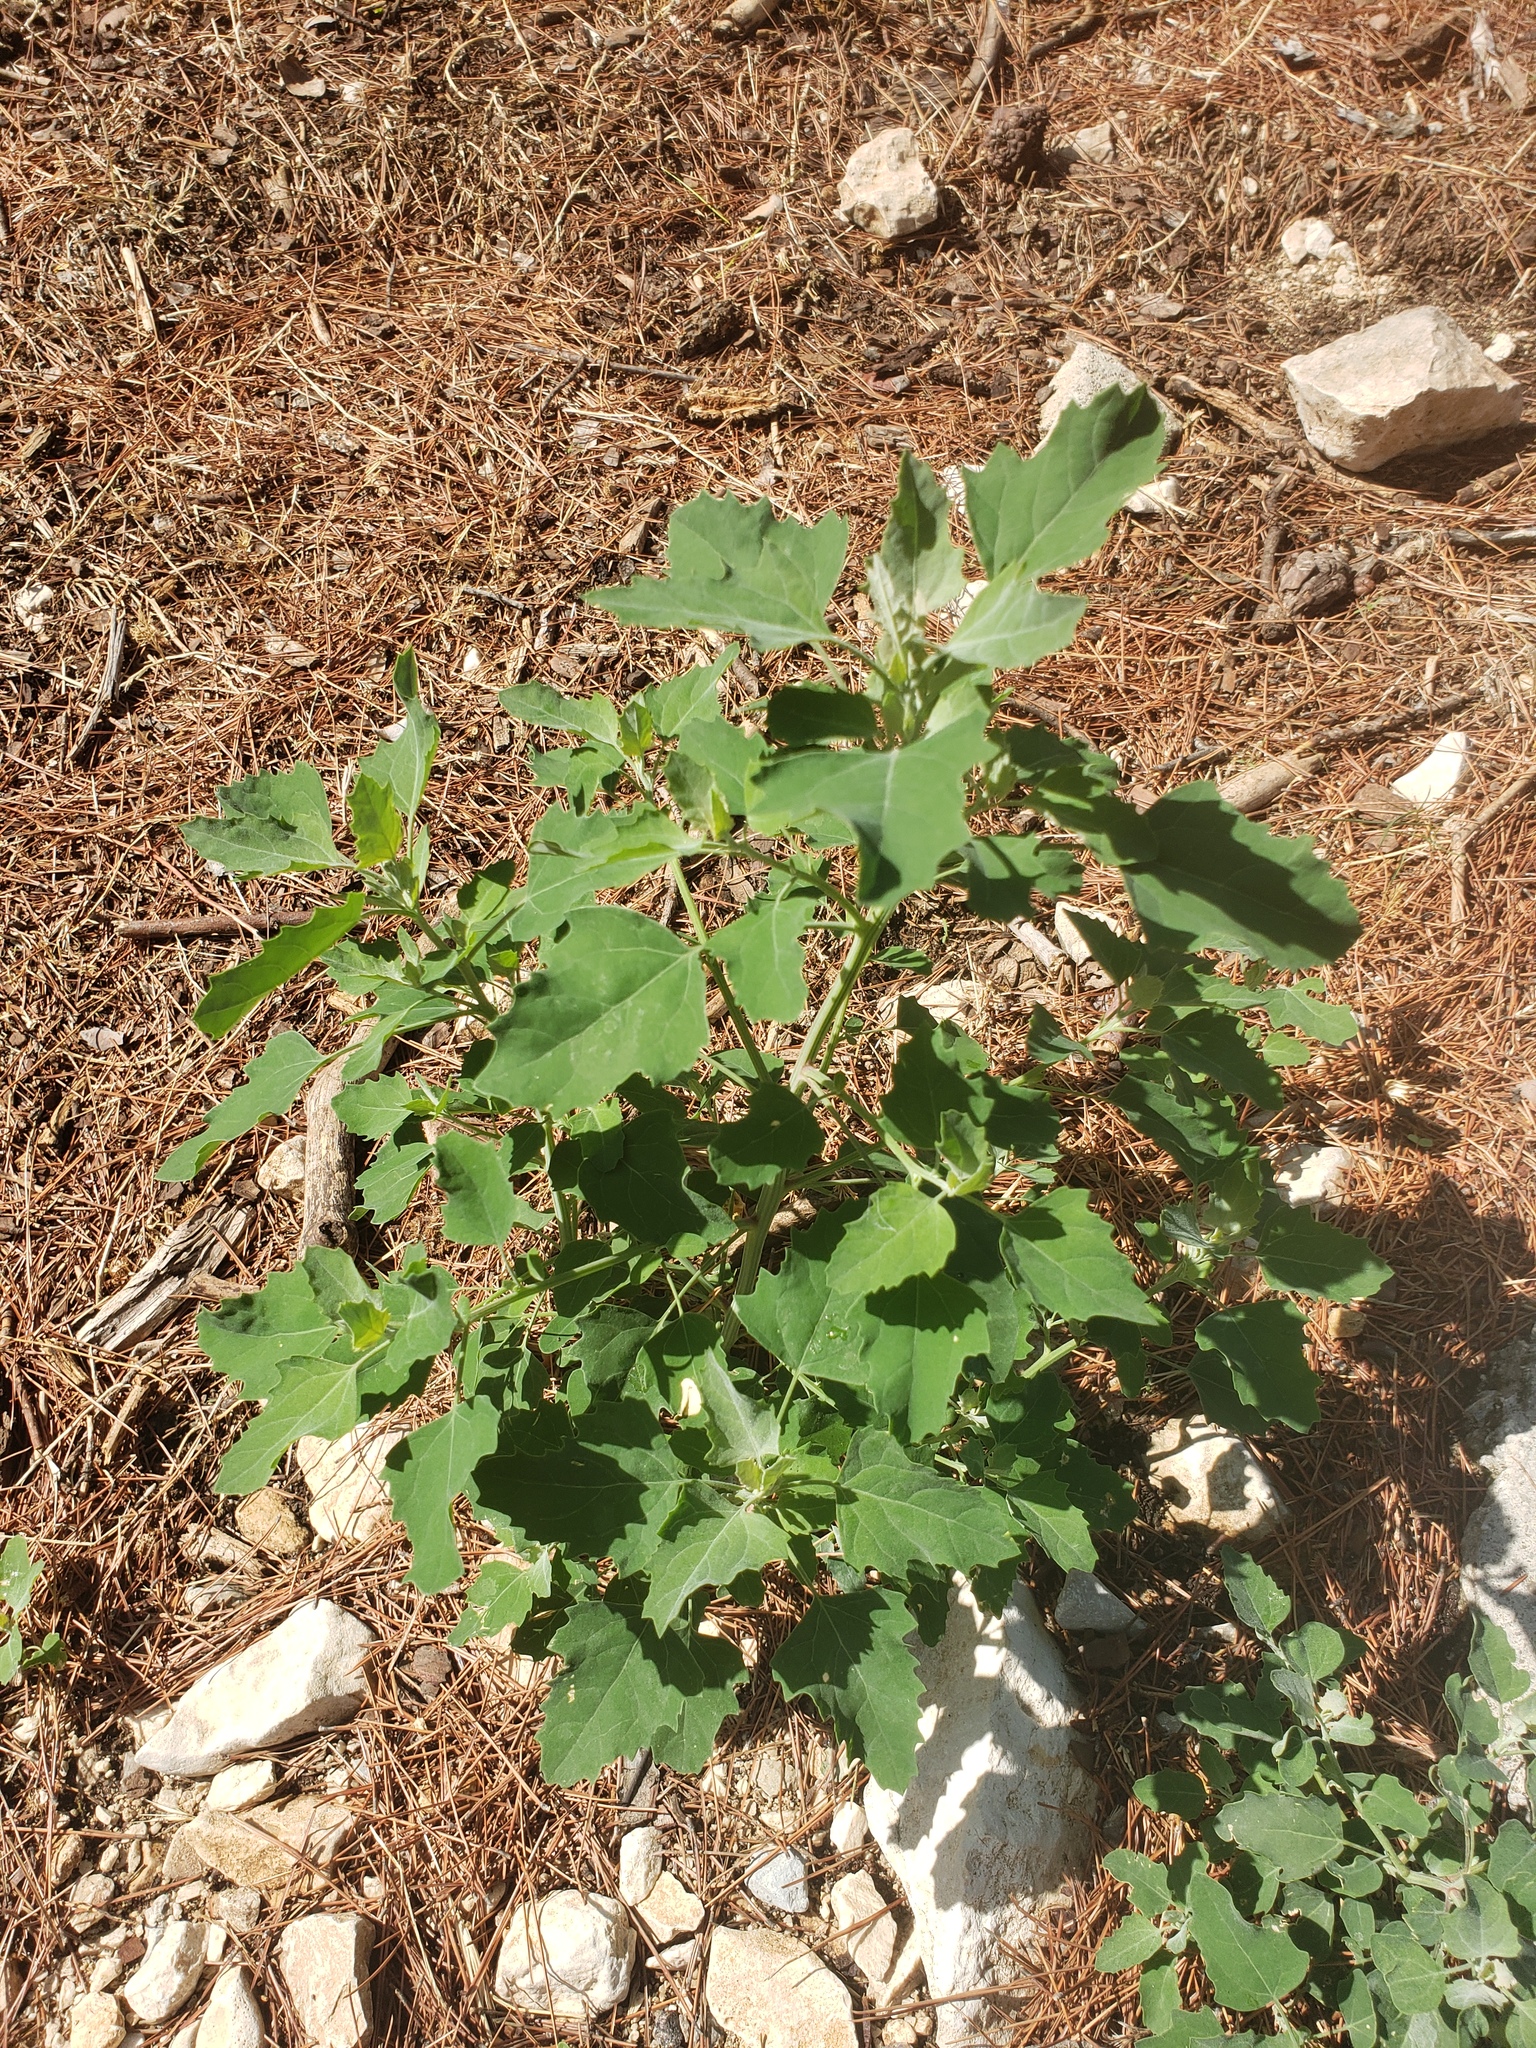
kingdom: Plantae
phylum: Tracheophyta
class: Magnoliopsida
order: Caryophyllales
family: Amaranthaceae
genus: Chenopodium
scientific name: Chenopodium album
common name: Fat-hen
